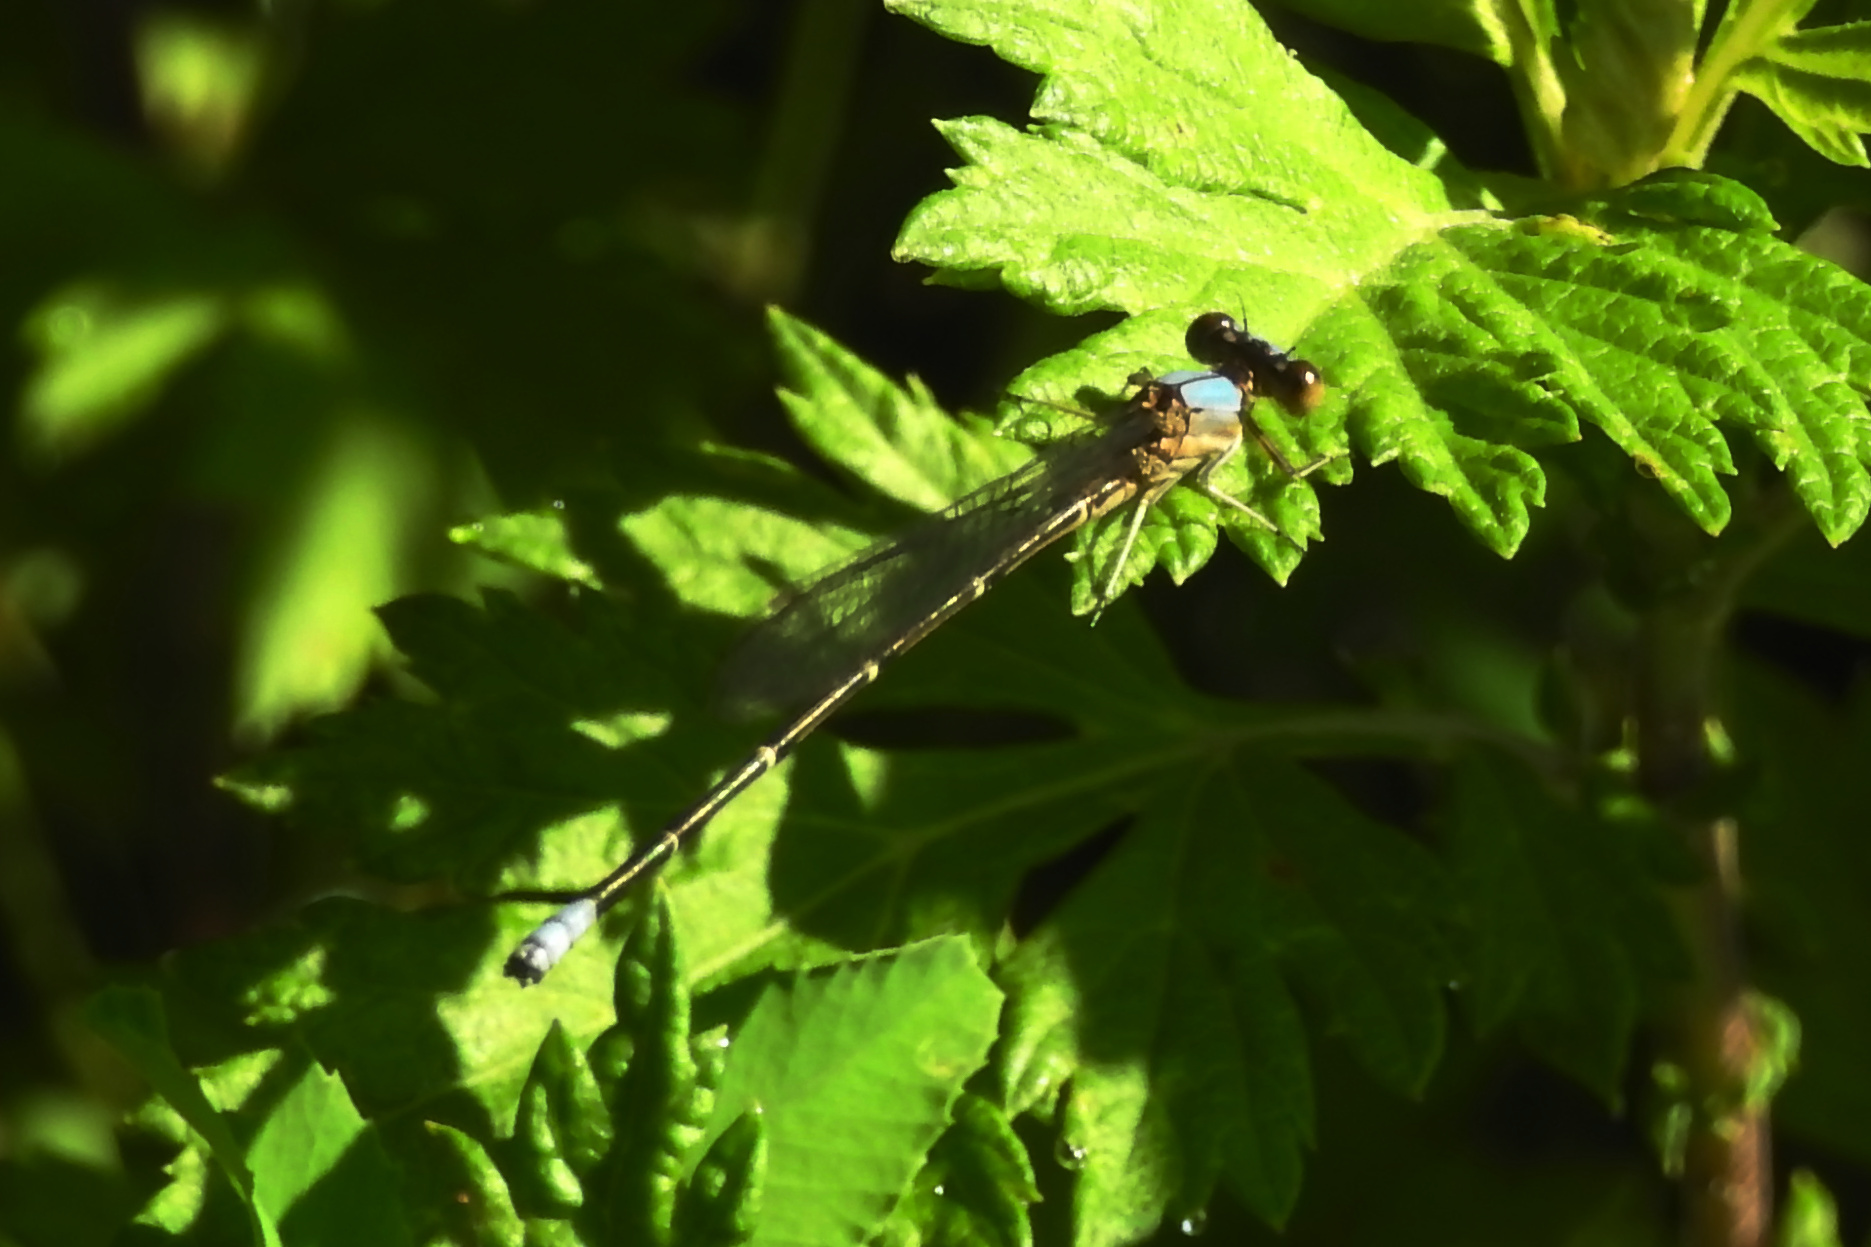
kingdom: Animalia
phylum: Arthropoda
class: Insecta
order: Odonata
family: Coenagrionidae
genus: Argia
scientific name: Argia apicalis
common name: Blue-fronted dancer
